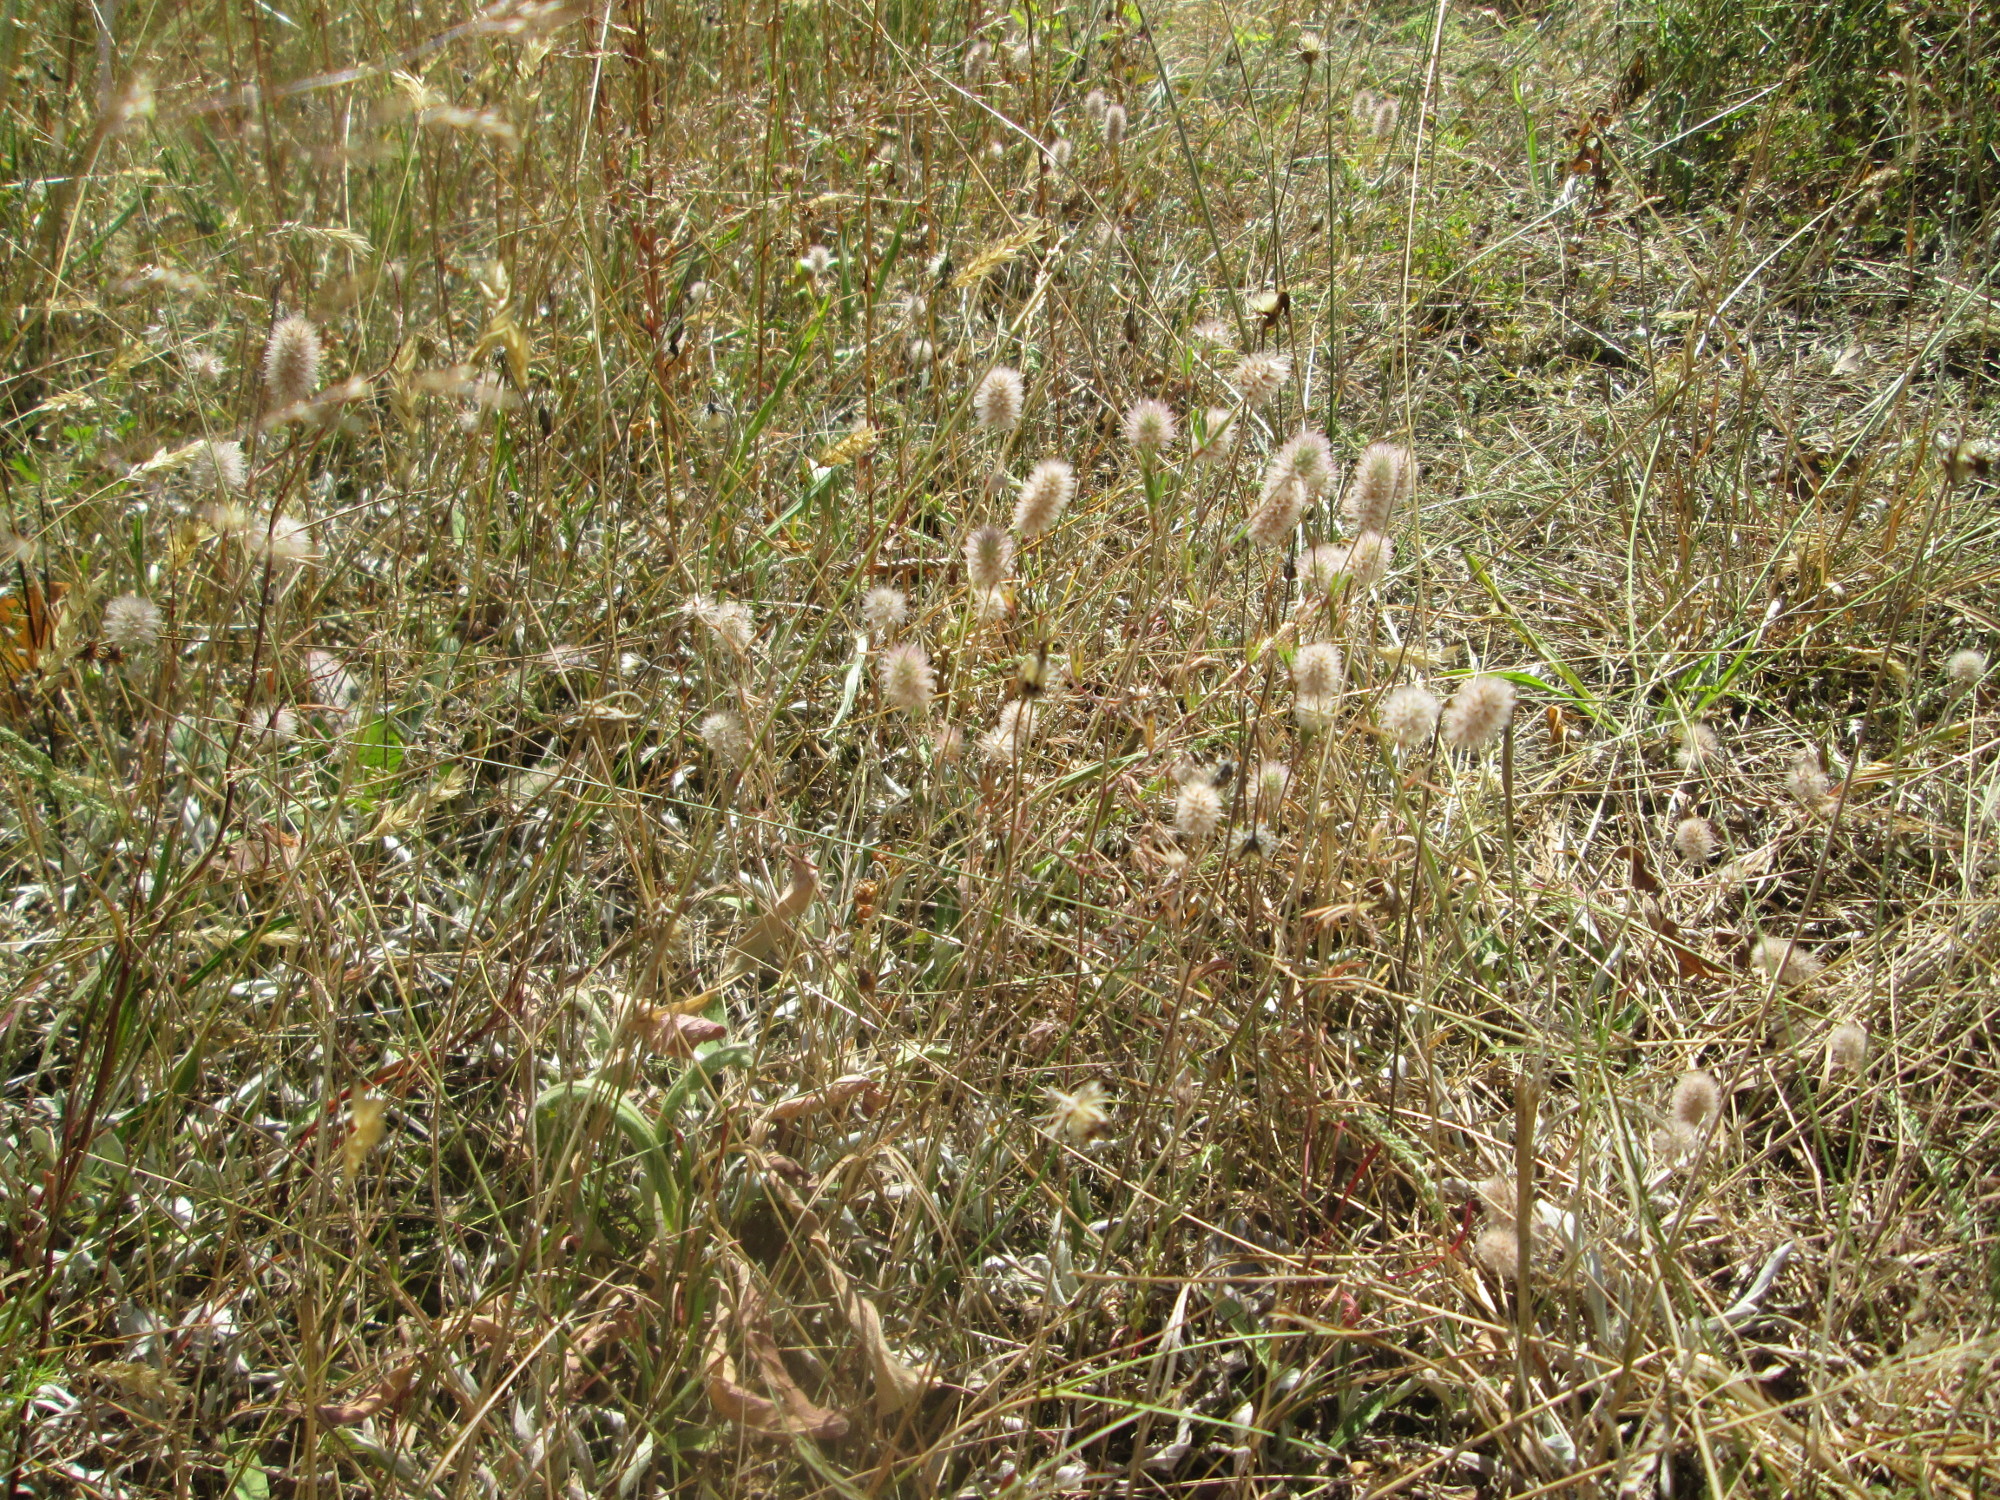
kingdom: Plantae
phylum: Tracheophyta
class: Magnoliopsida
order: Fabales
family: Fabaceae
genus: Trifolium
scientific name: Trifolium arvense
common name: Hare's-foot clover
